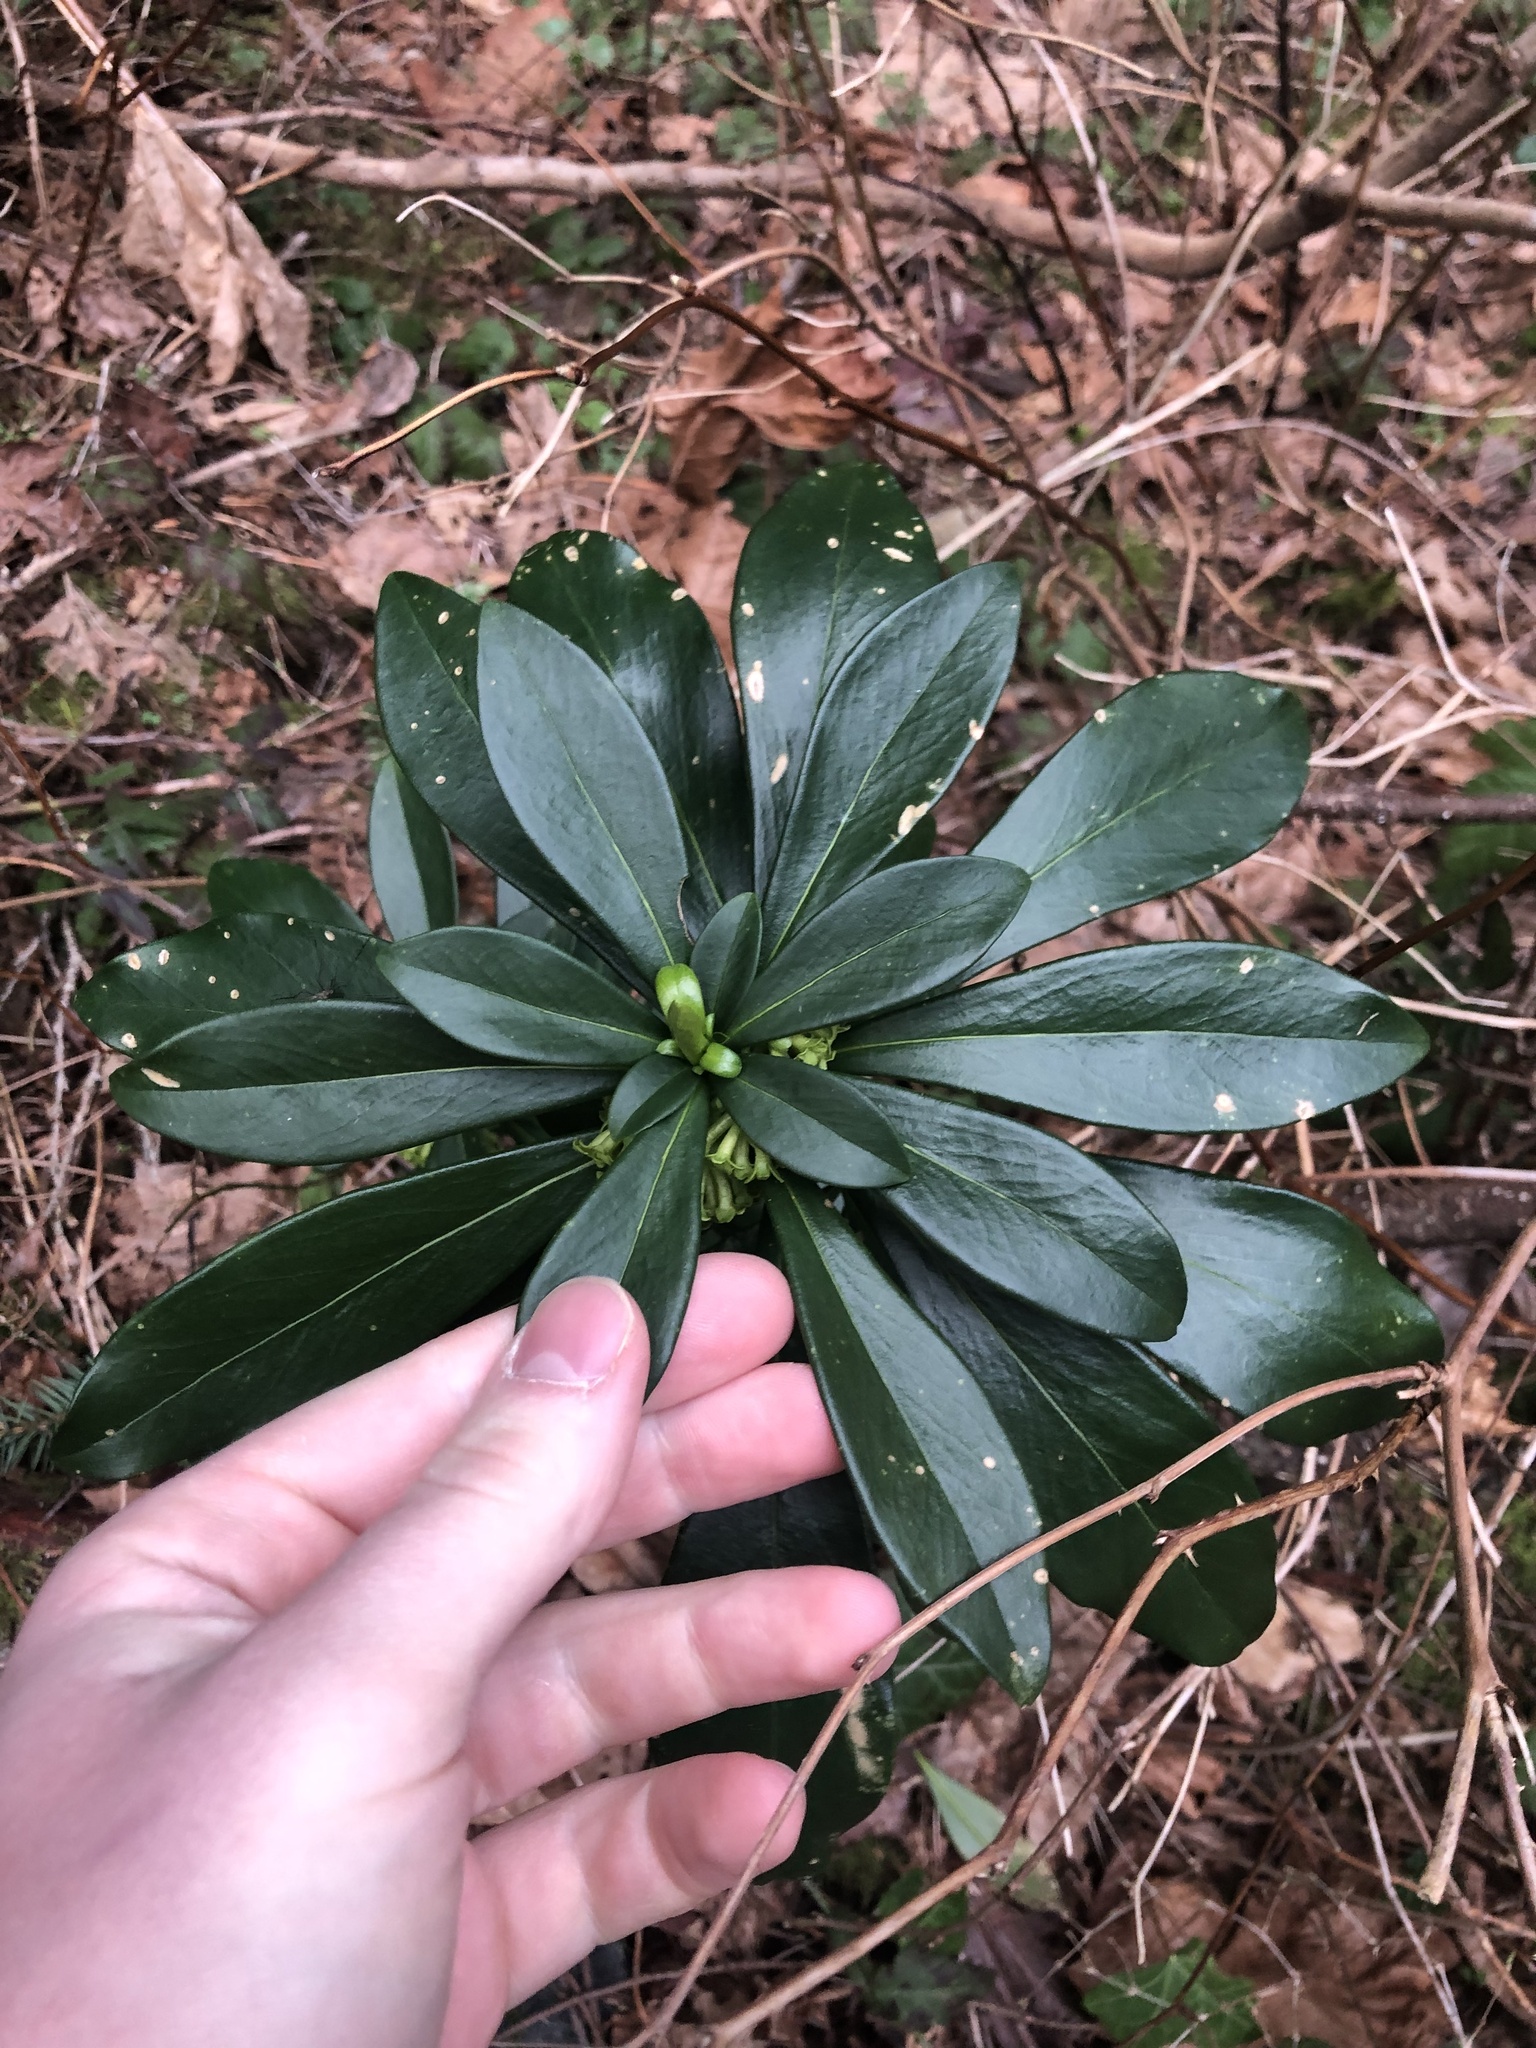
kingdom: Plantae
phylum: Tracheophyta
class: Magnoliopsida
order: Malvales
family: Thymelaeaceae
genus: Daphne
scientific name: Daphne laureola
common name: Spurge-laurel
